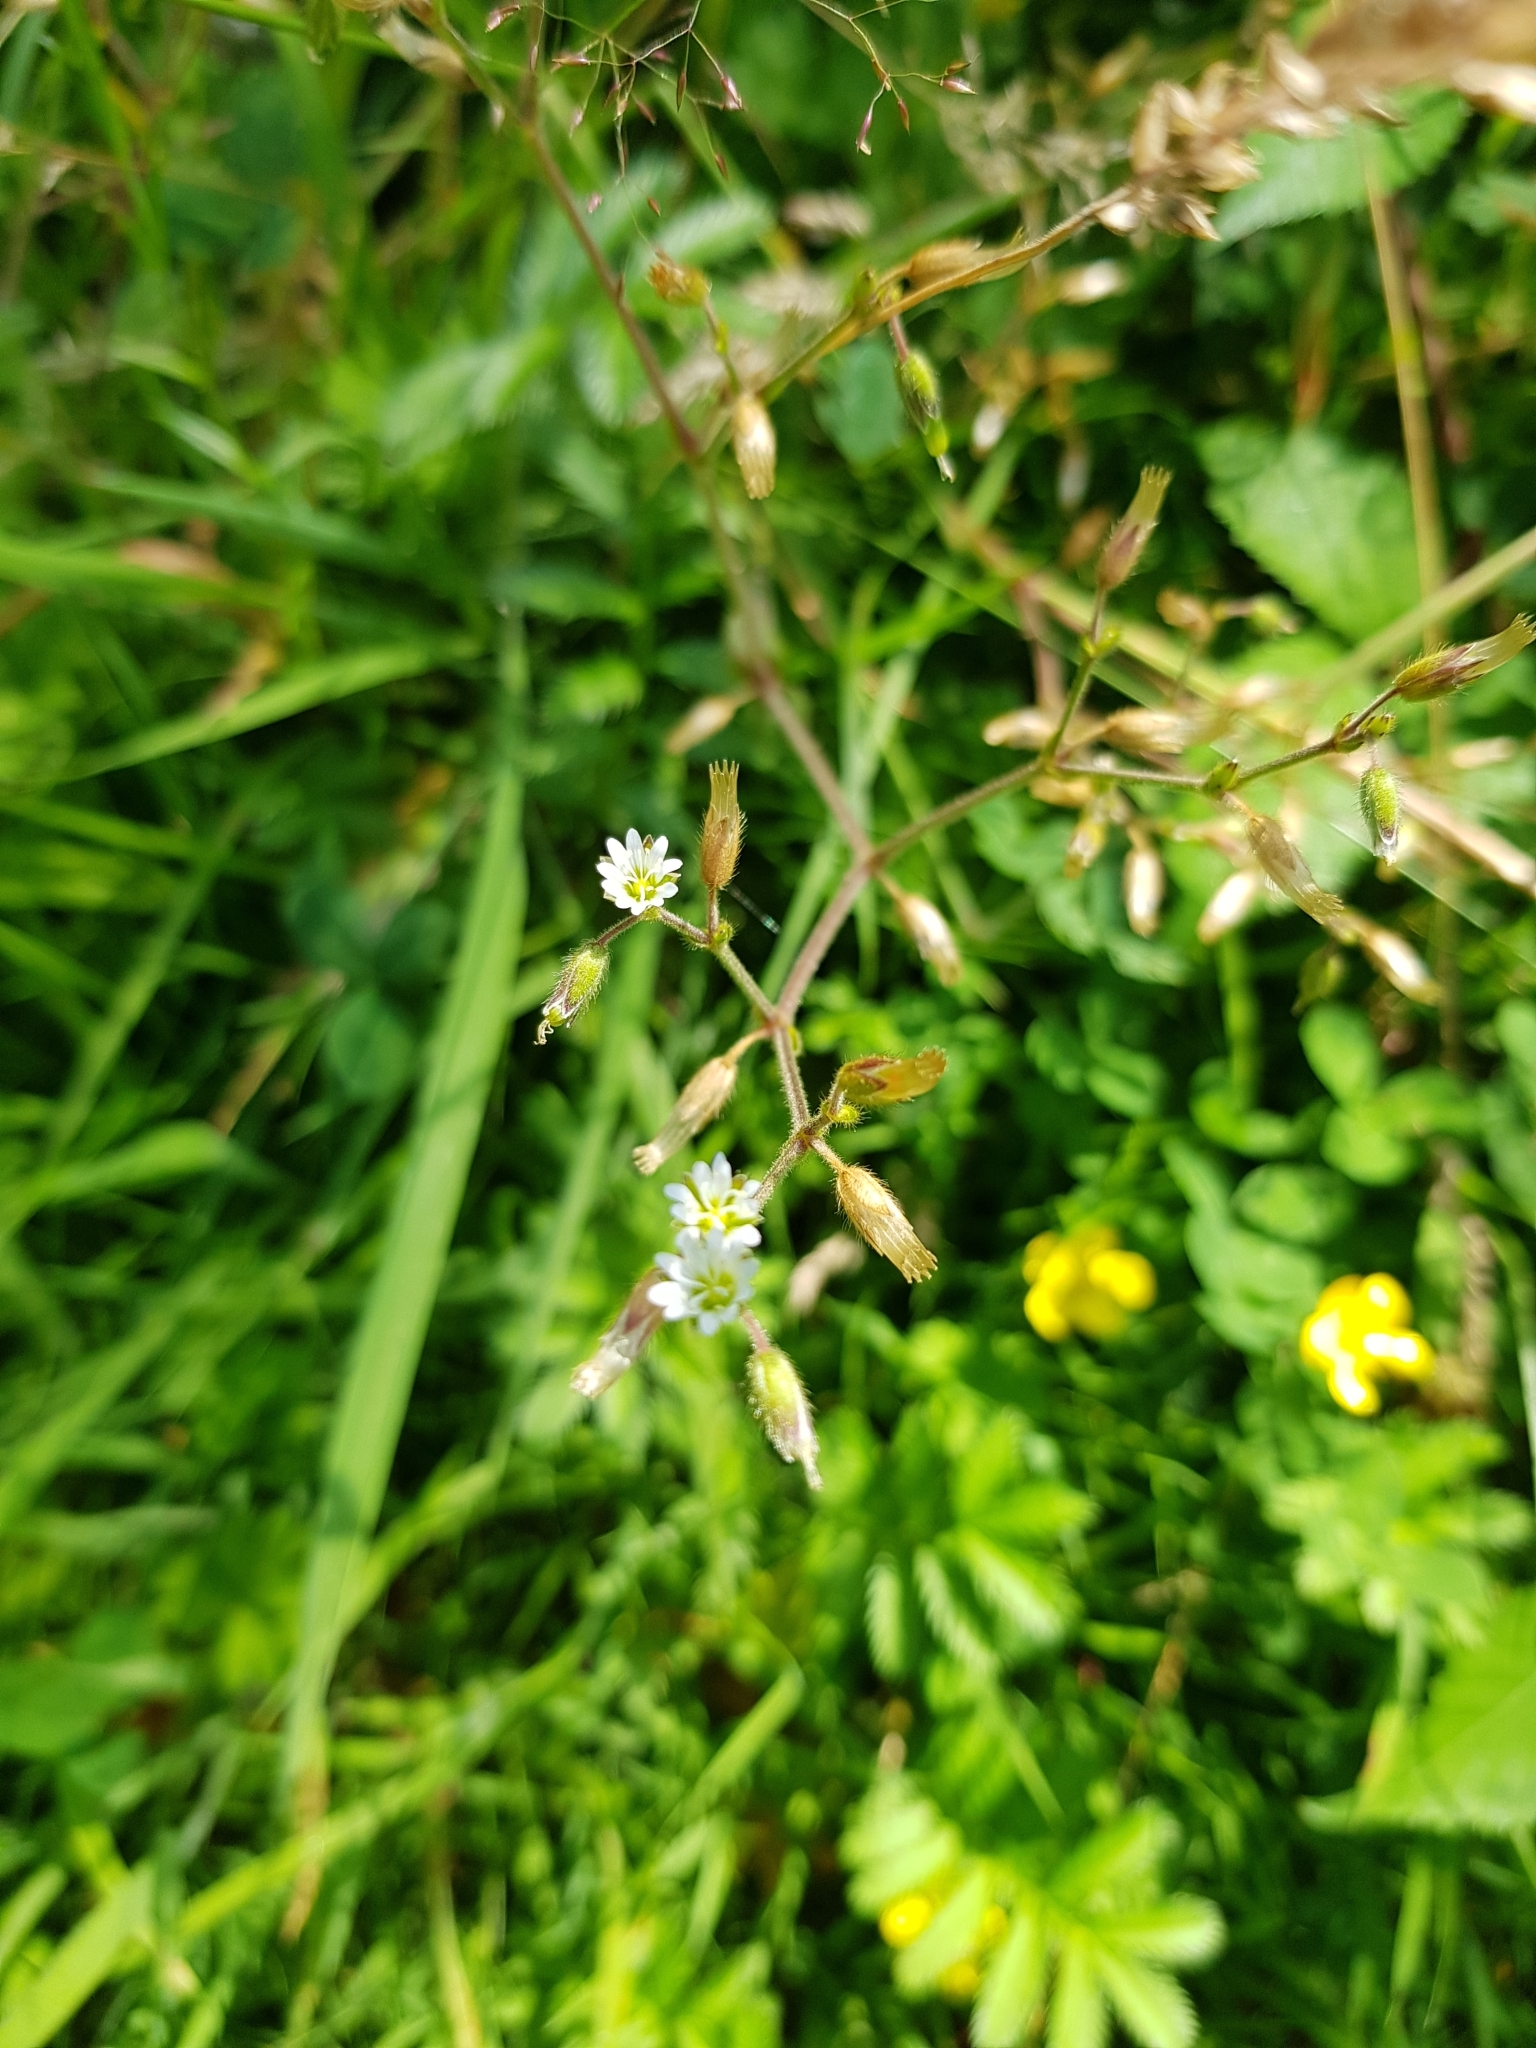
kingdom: Plantae
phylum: Tracheophyta
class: Magnoliopsida
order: Caryophyllales
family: Caryophyllaceae
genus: Cerastium
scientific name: Cerastium fontanum
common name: Common mouse-ear
